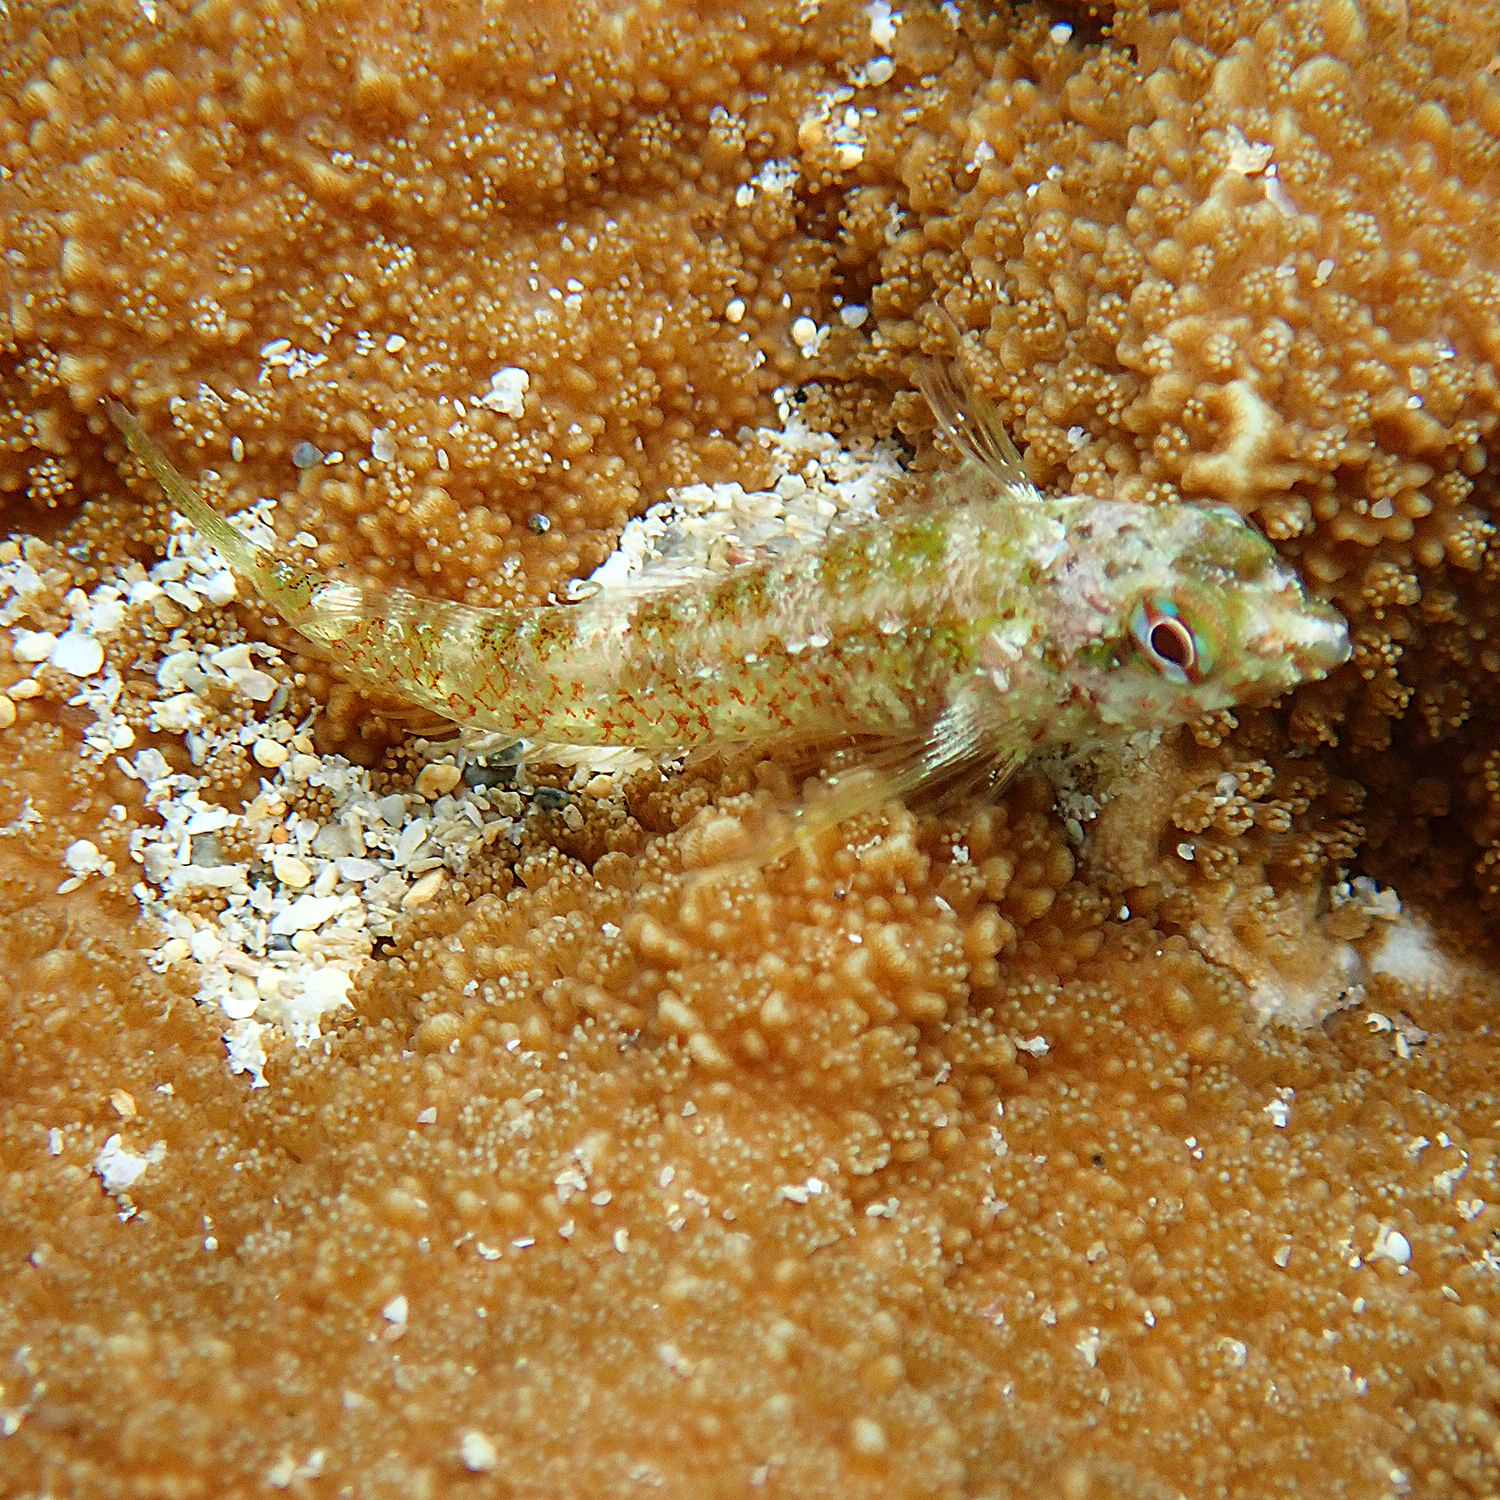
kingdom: Animalia
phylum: Chordata
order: Perciformes
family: Tripterygiidae
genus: Enneapterygius
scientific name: Enneapterygius rufopileus
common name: Lord howe black-head triplefin
